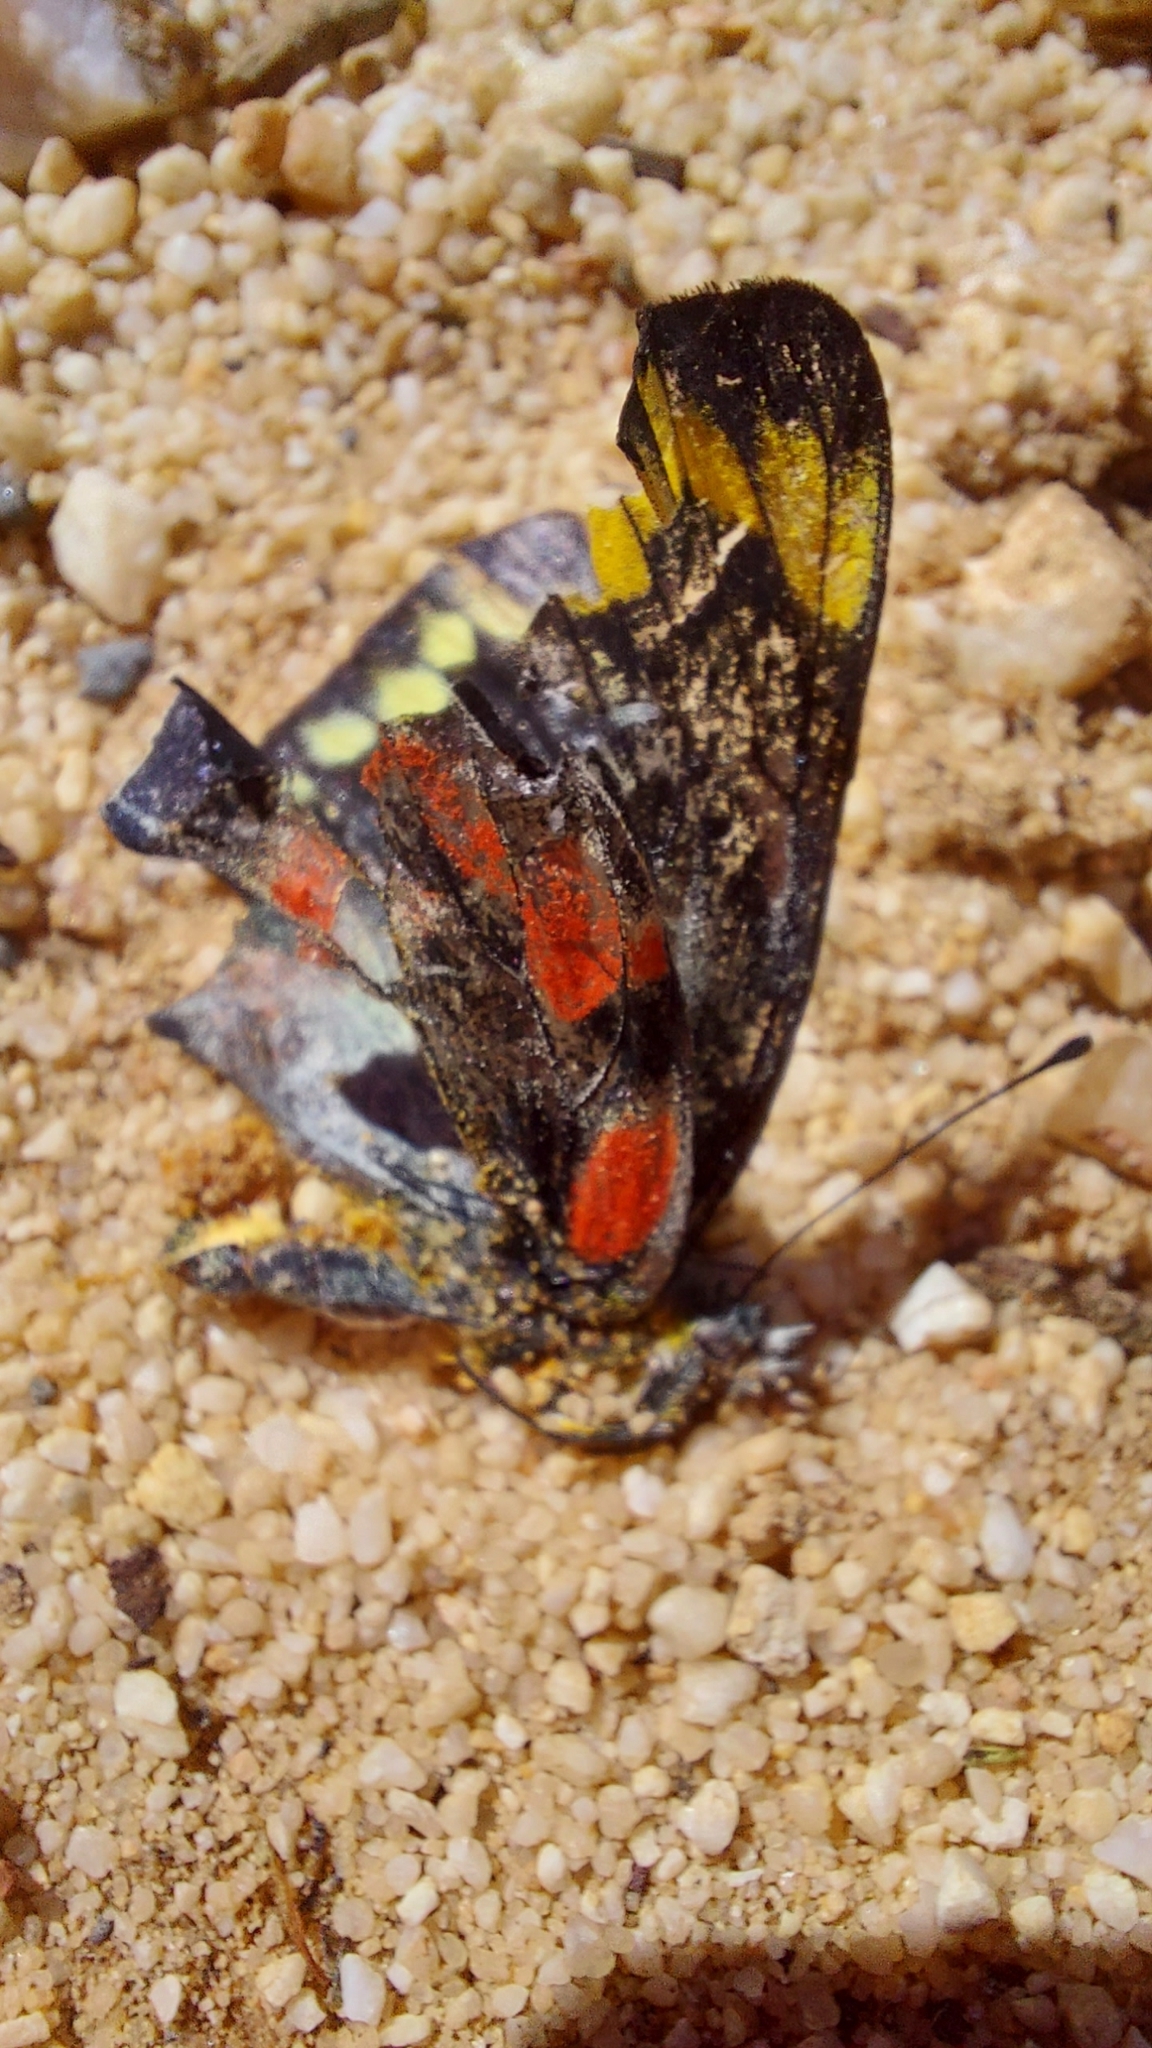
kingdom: Animalia
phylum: Arthropoda
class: Insecta
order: Lepidoptera
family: Pieridae
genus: Delias
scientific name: Delias harpalyce
